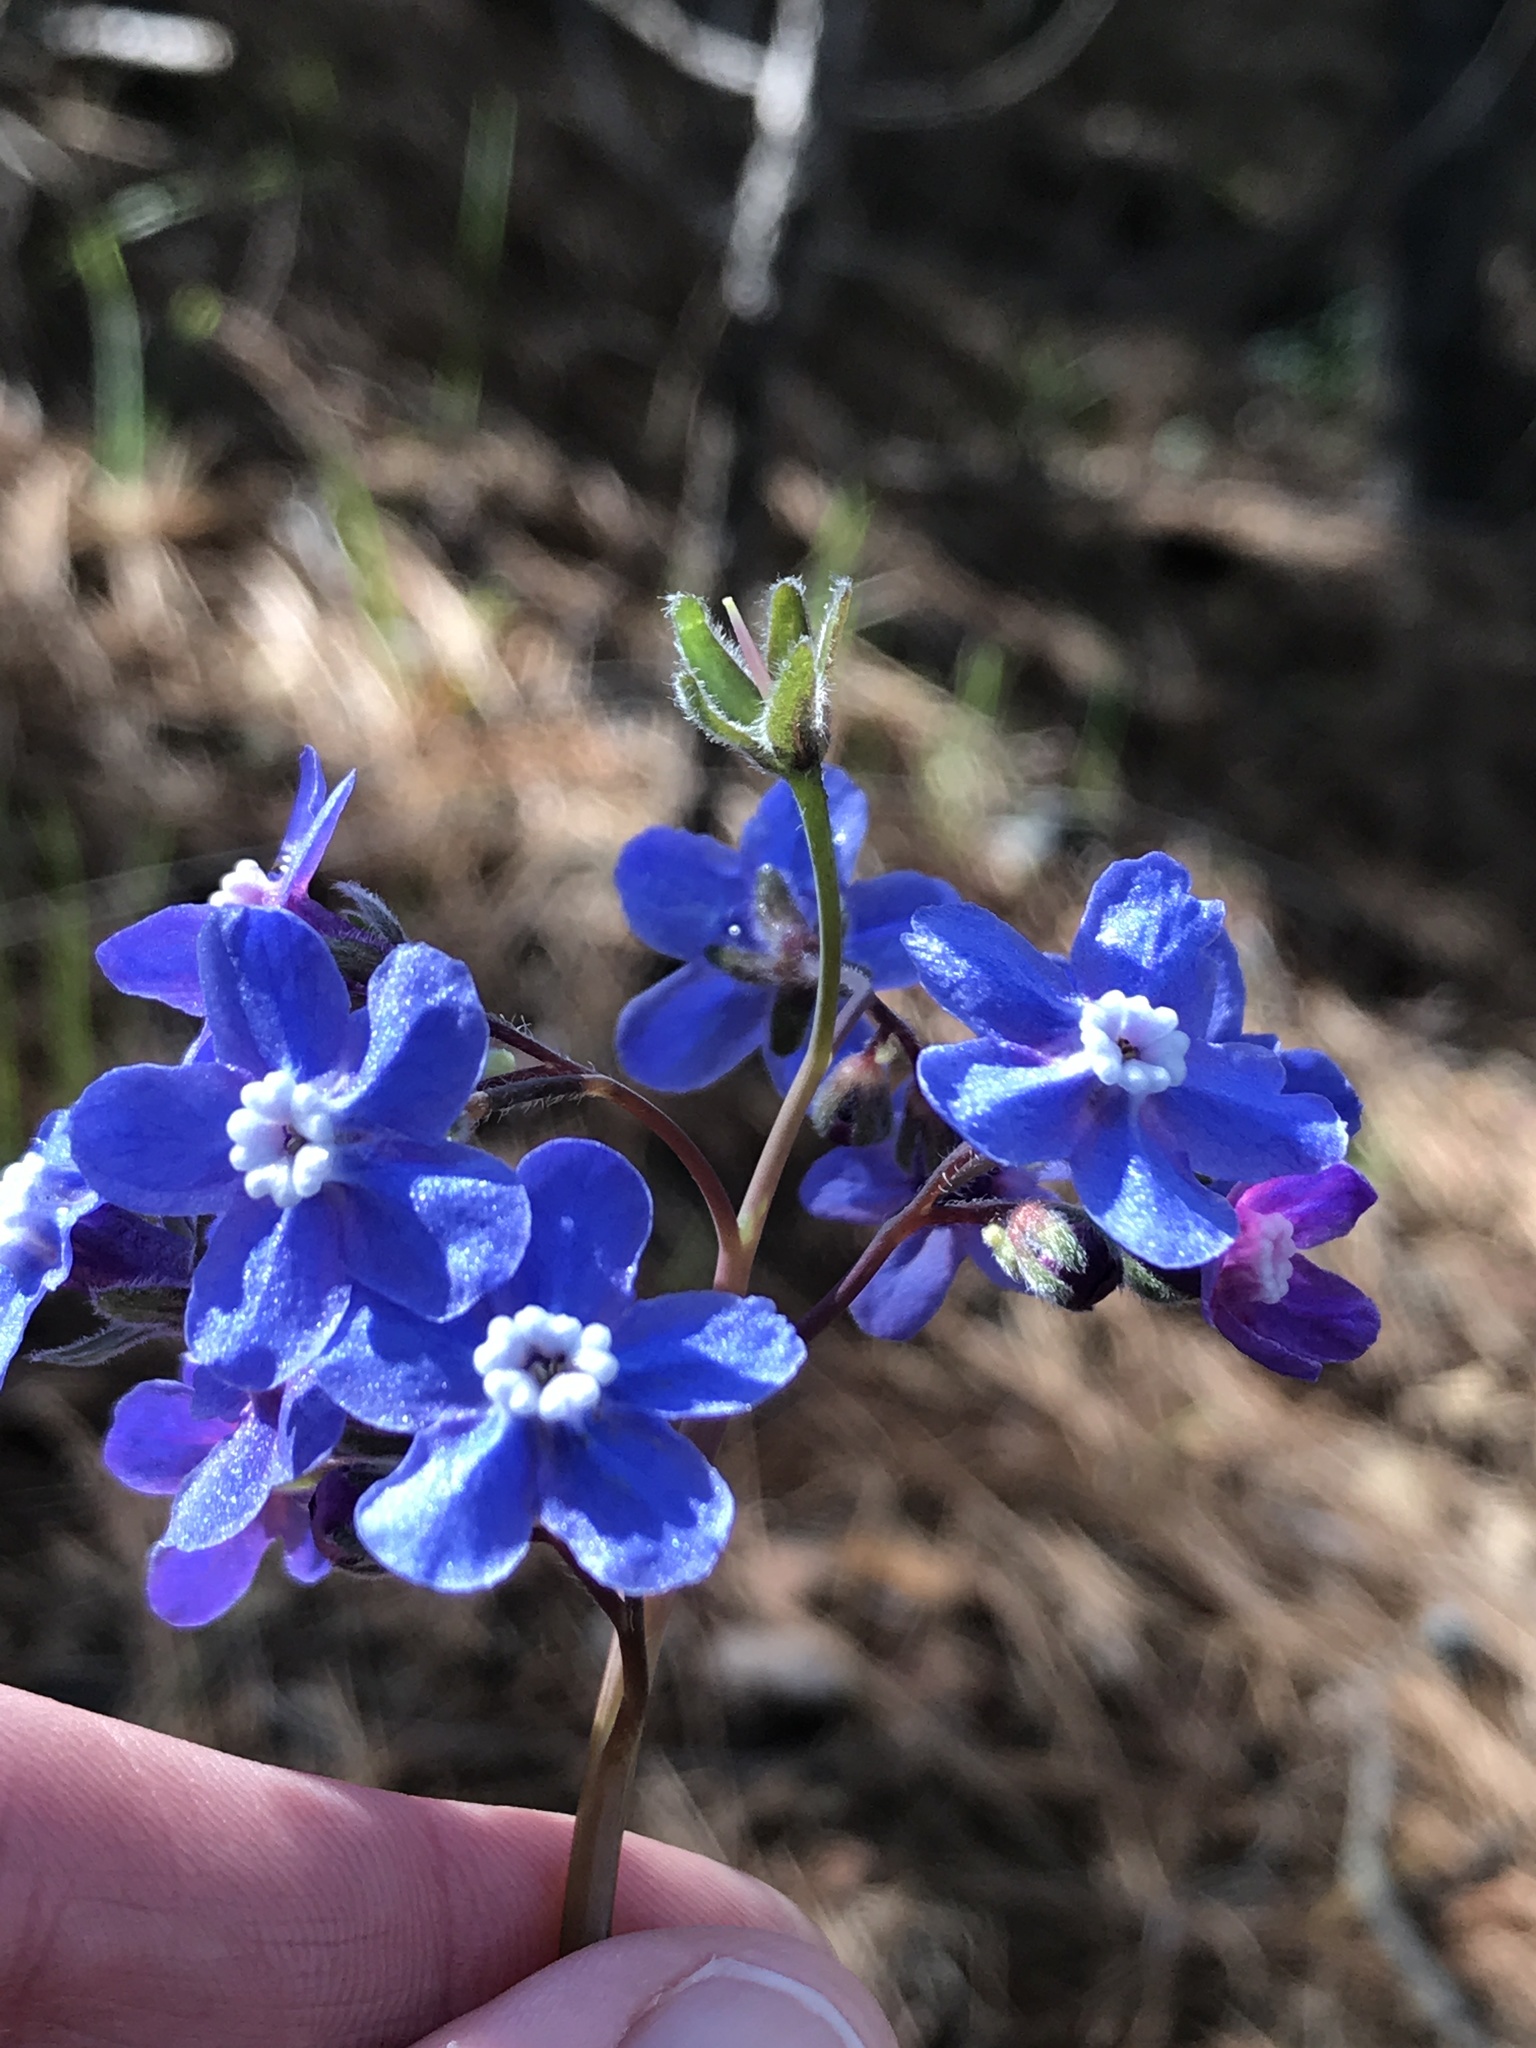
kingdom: Plantae
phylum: Tracheophyta
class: Magnoliopsida
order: Boraginales
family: Boraginaceae
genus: Adelinia
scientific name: Adelinia grande
